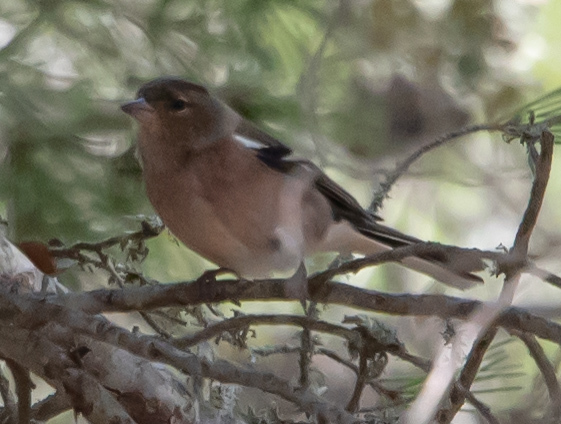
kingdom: Animalia
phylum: Chordata
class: Aves
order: Passeriformes
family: Fringillidae
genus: Fringilla
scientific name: Fringilla coelebs
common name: Common chaffinch
